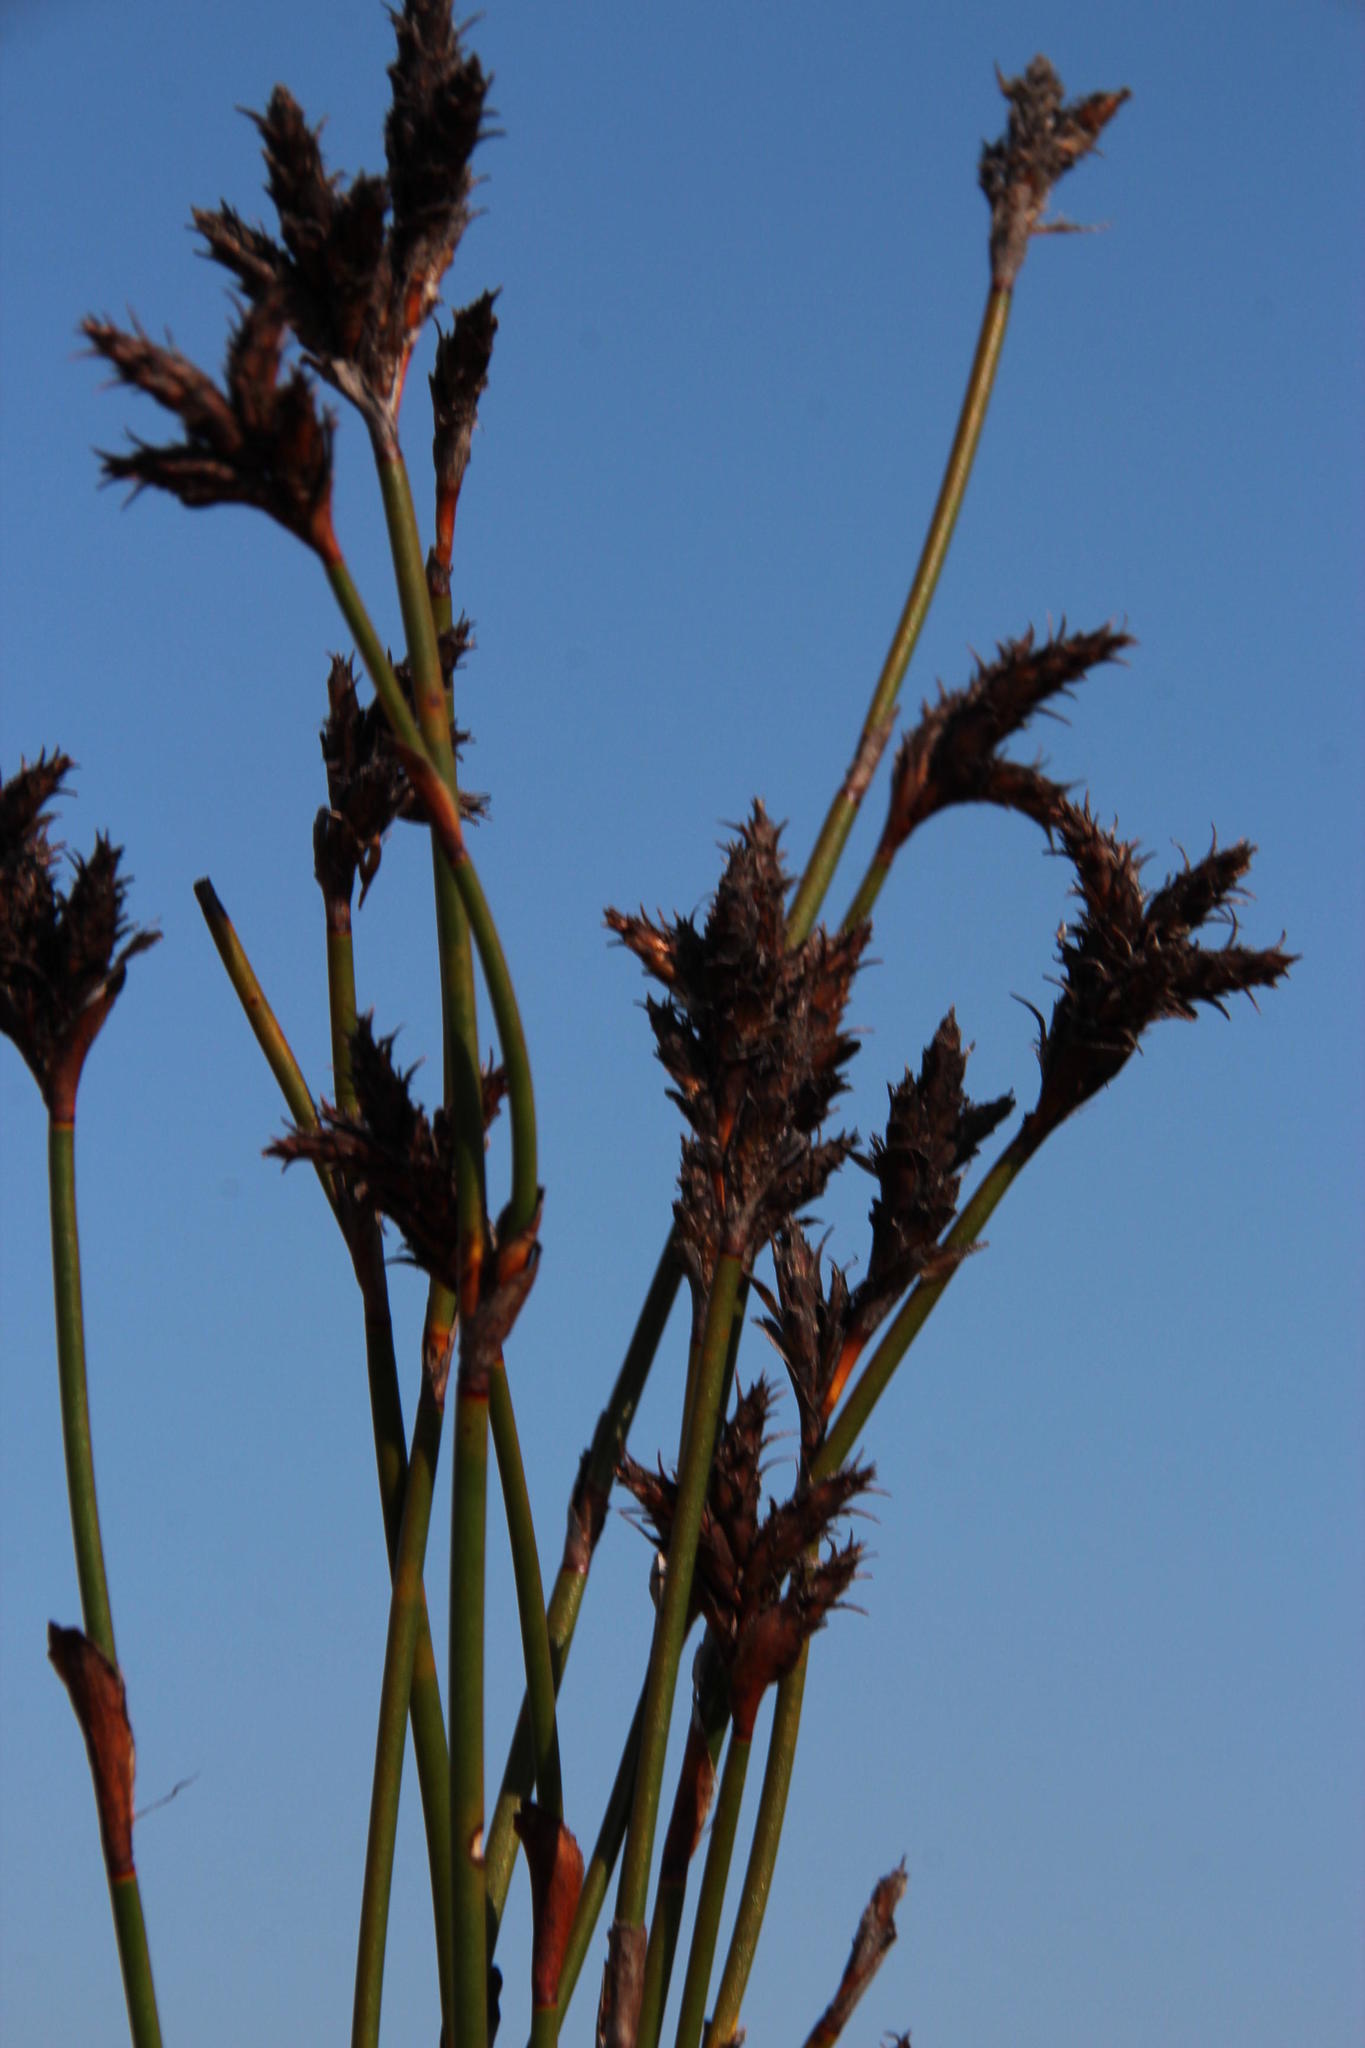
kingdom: Plantae
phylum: Tracheophyta
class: Liliopsida
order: Poales
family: Restionaceae
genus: Restio
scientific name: Restio ocreatus
